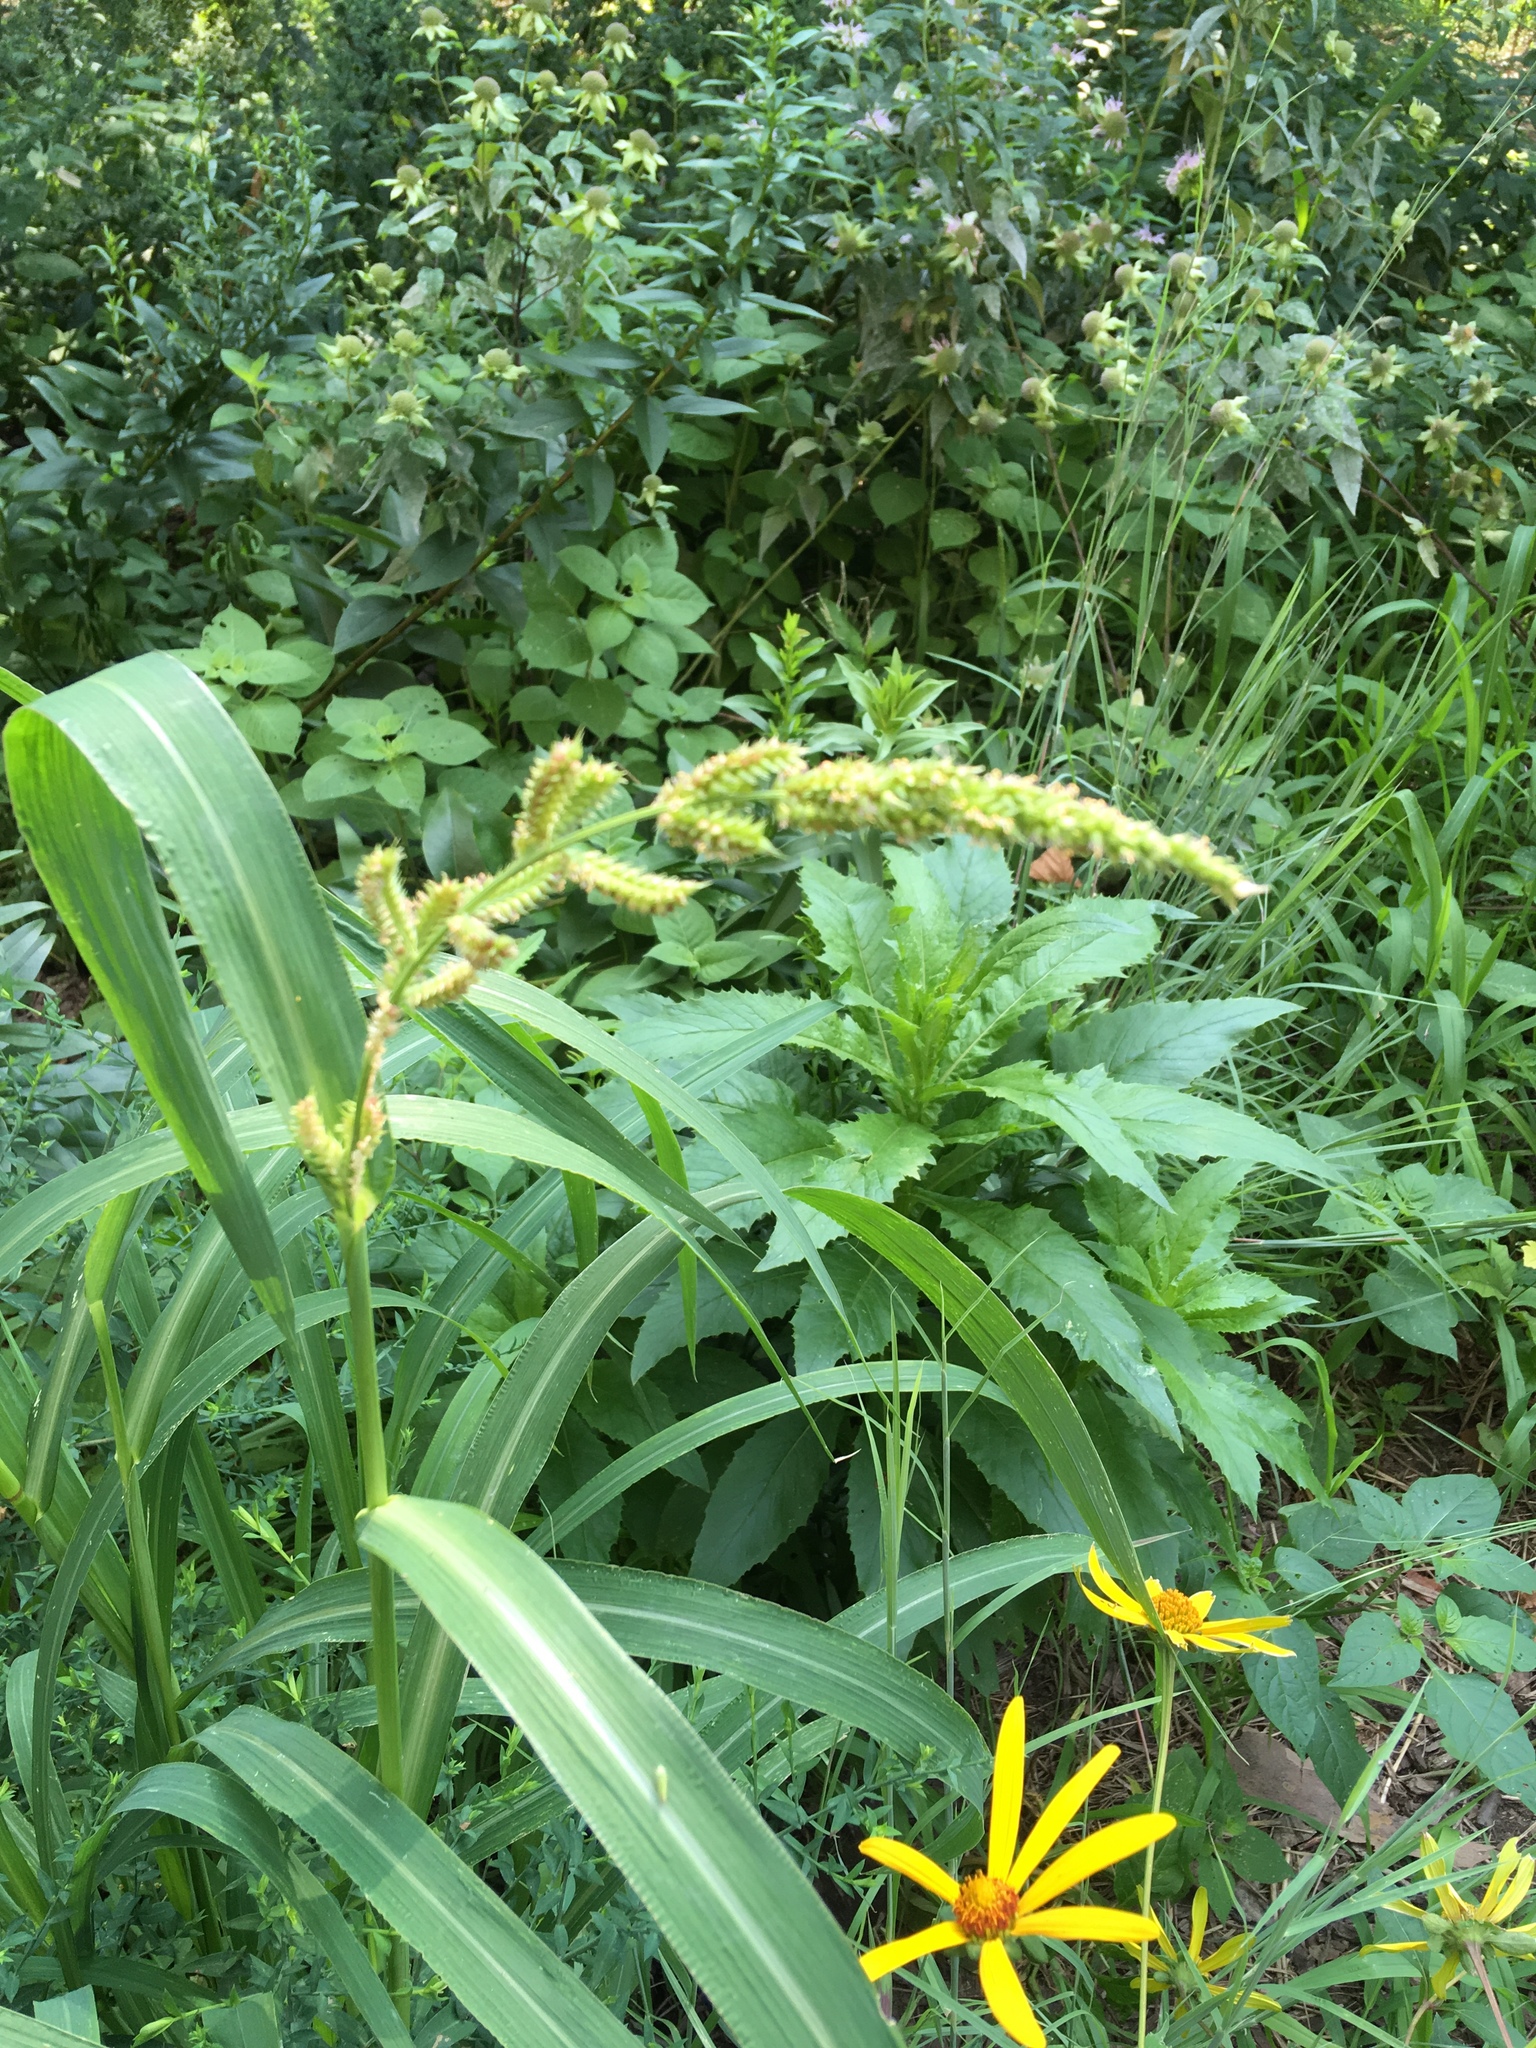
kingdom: Plantae
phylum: Tracheophyta
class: Liliopsida
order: Poales
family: Poaceae
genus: Echinochloa
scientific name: Echinochloa crus-galli
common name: Cockspur
